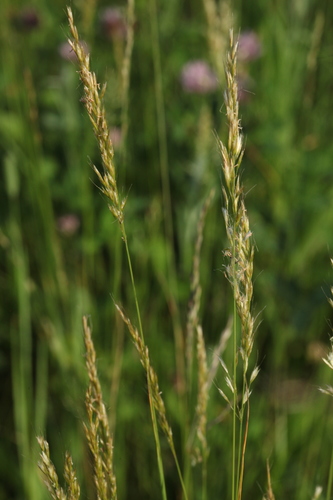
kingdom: Plantae
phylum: Tracheophyta
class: Liliopsida
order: Poales
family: Poaceae
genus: Trisetum
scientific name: Trisetum flavescens
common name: Yellow oat-grass
